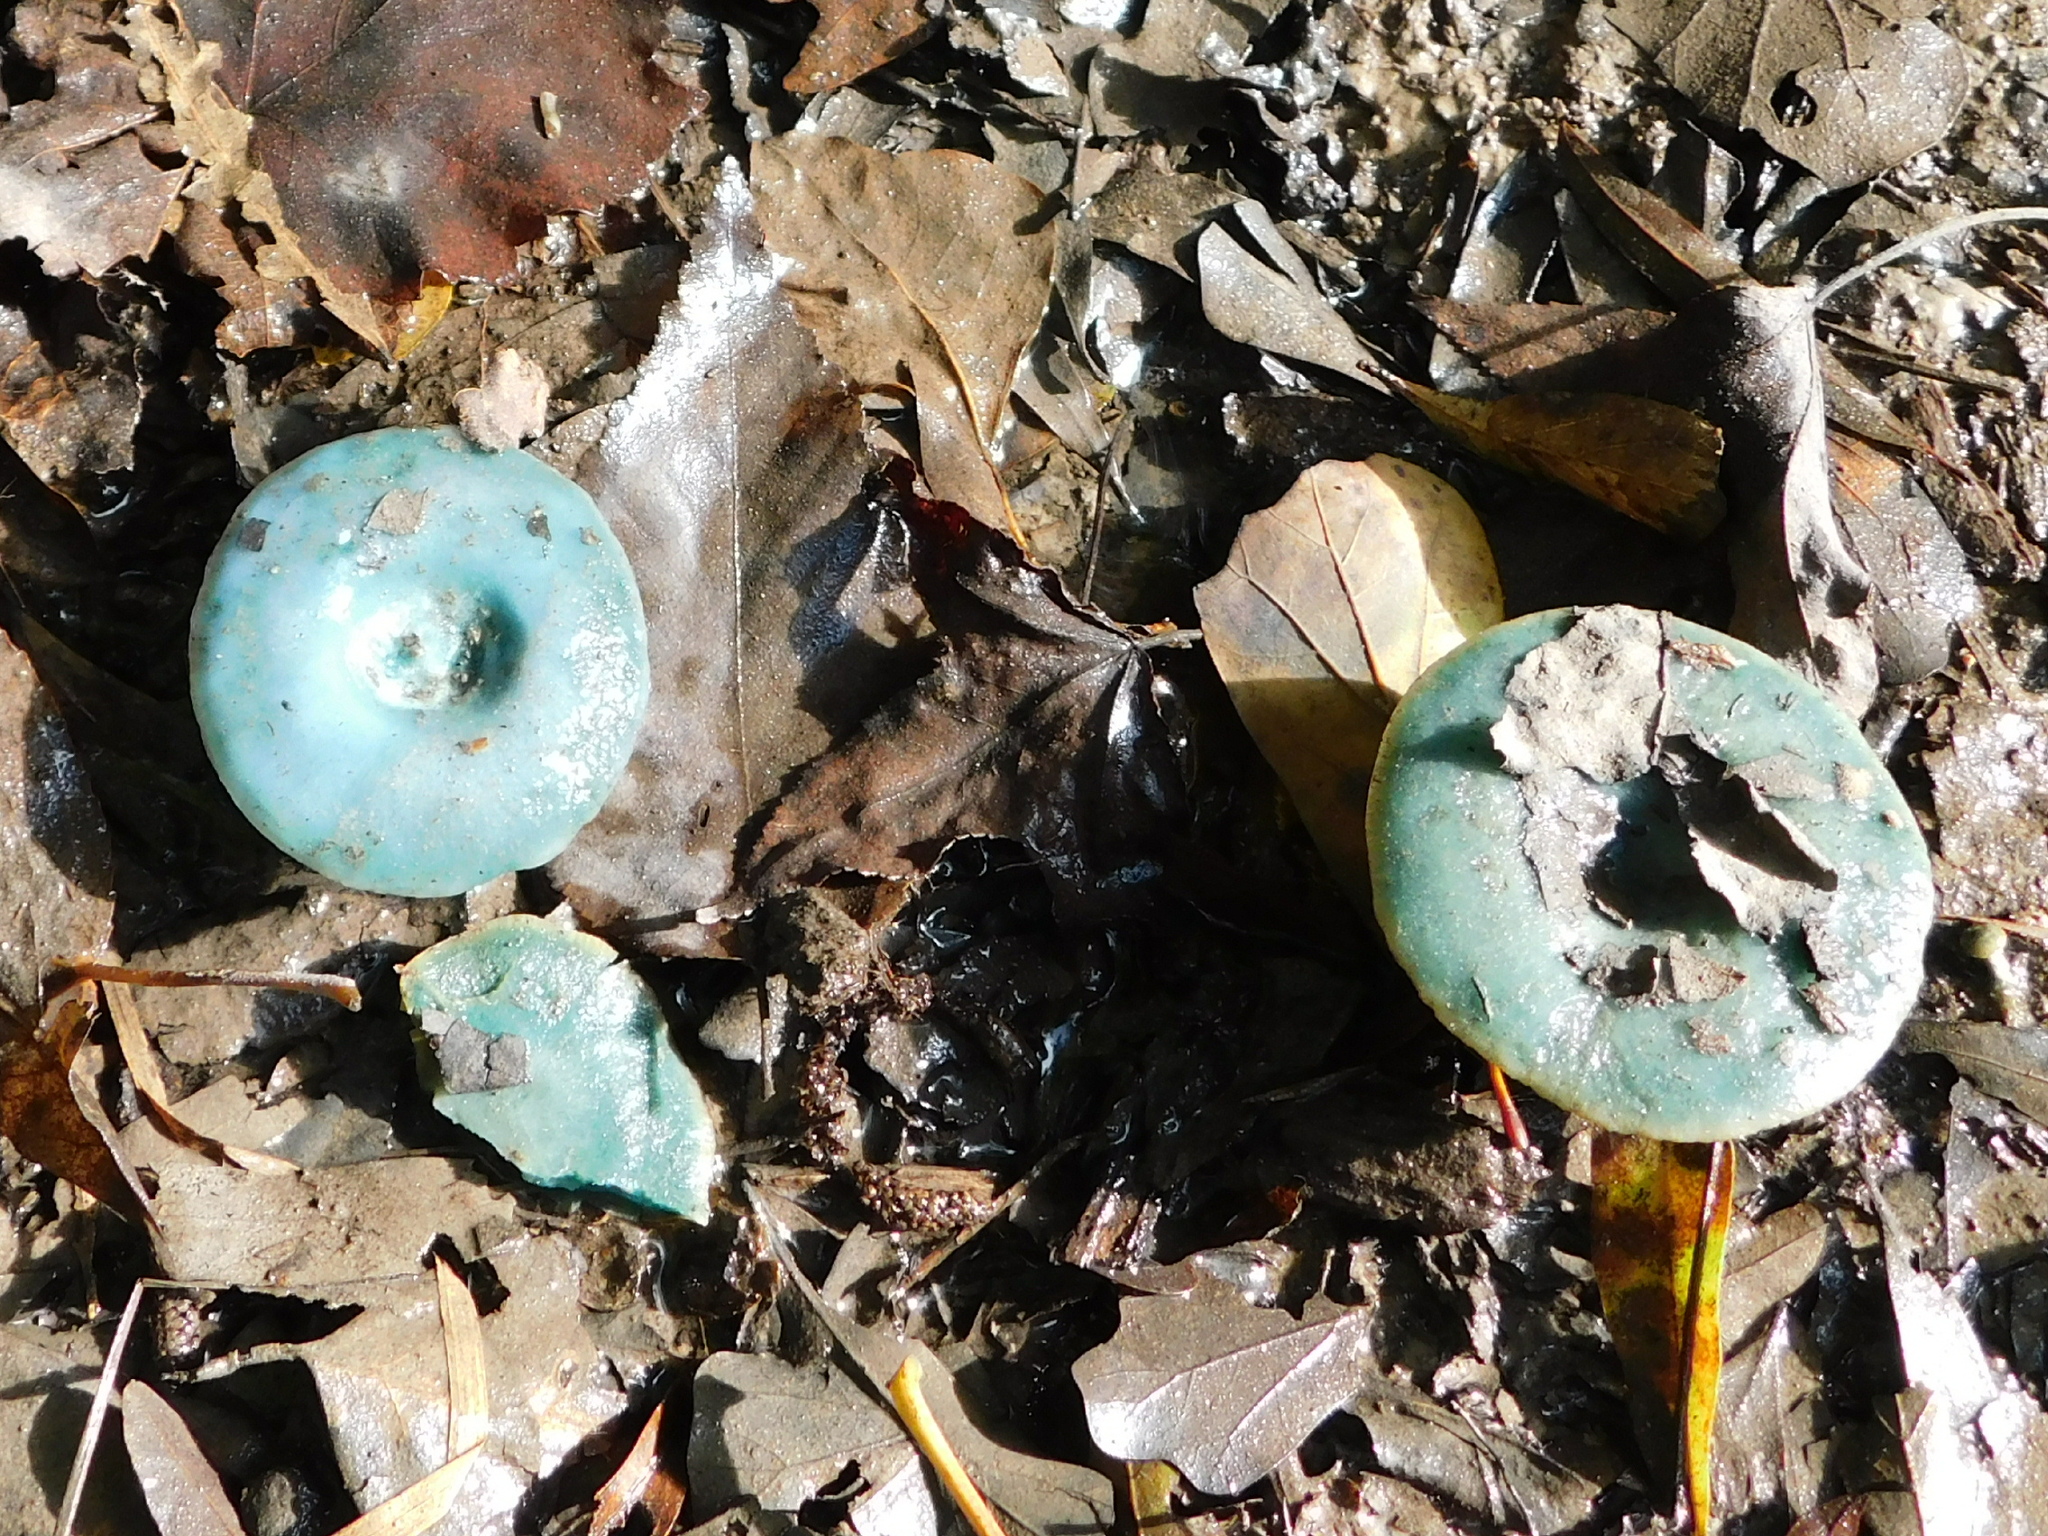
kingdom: Fungi
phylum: Basidiomycota
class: Agaricomycetes
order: Russulales
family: Russulaceae
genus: Lactarius
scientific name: Lactarius indigo
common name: Indigo milk cap
